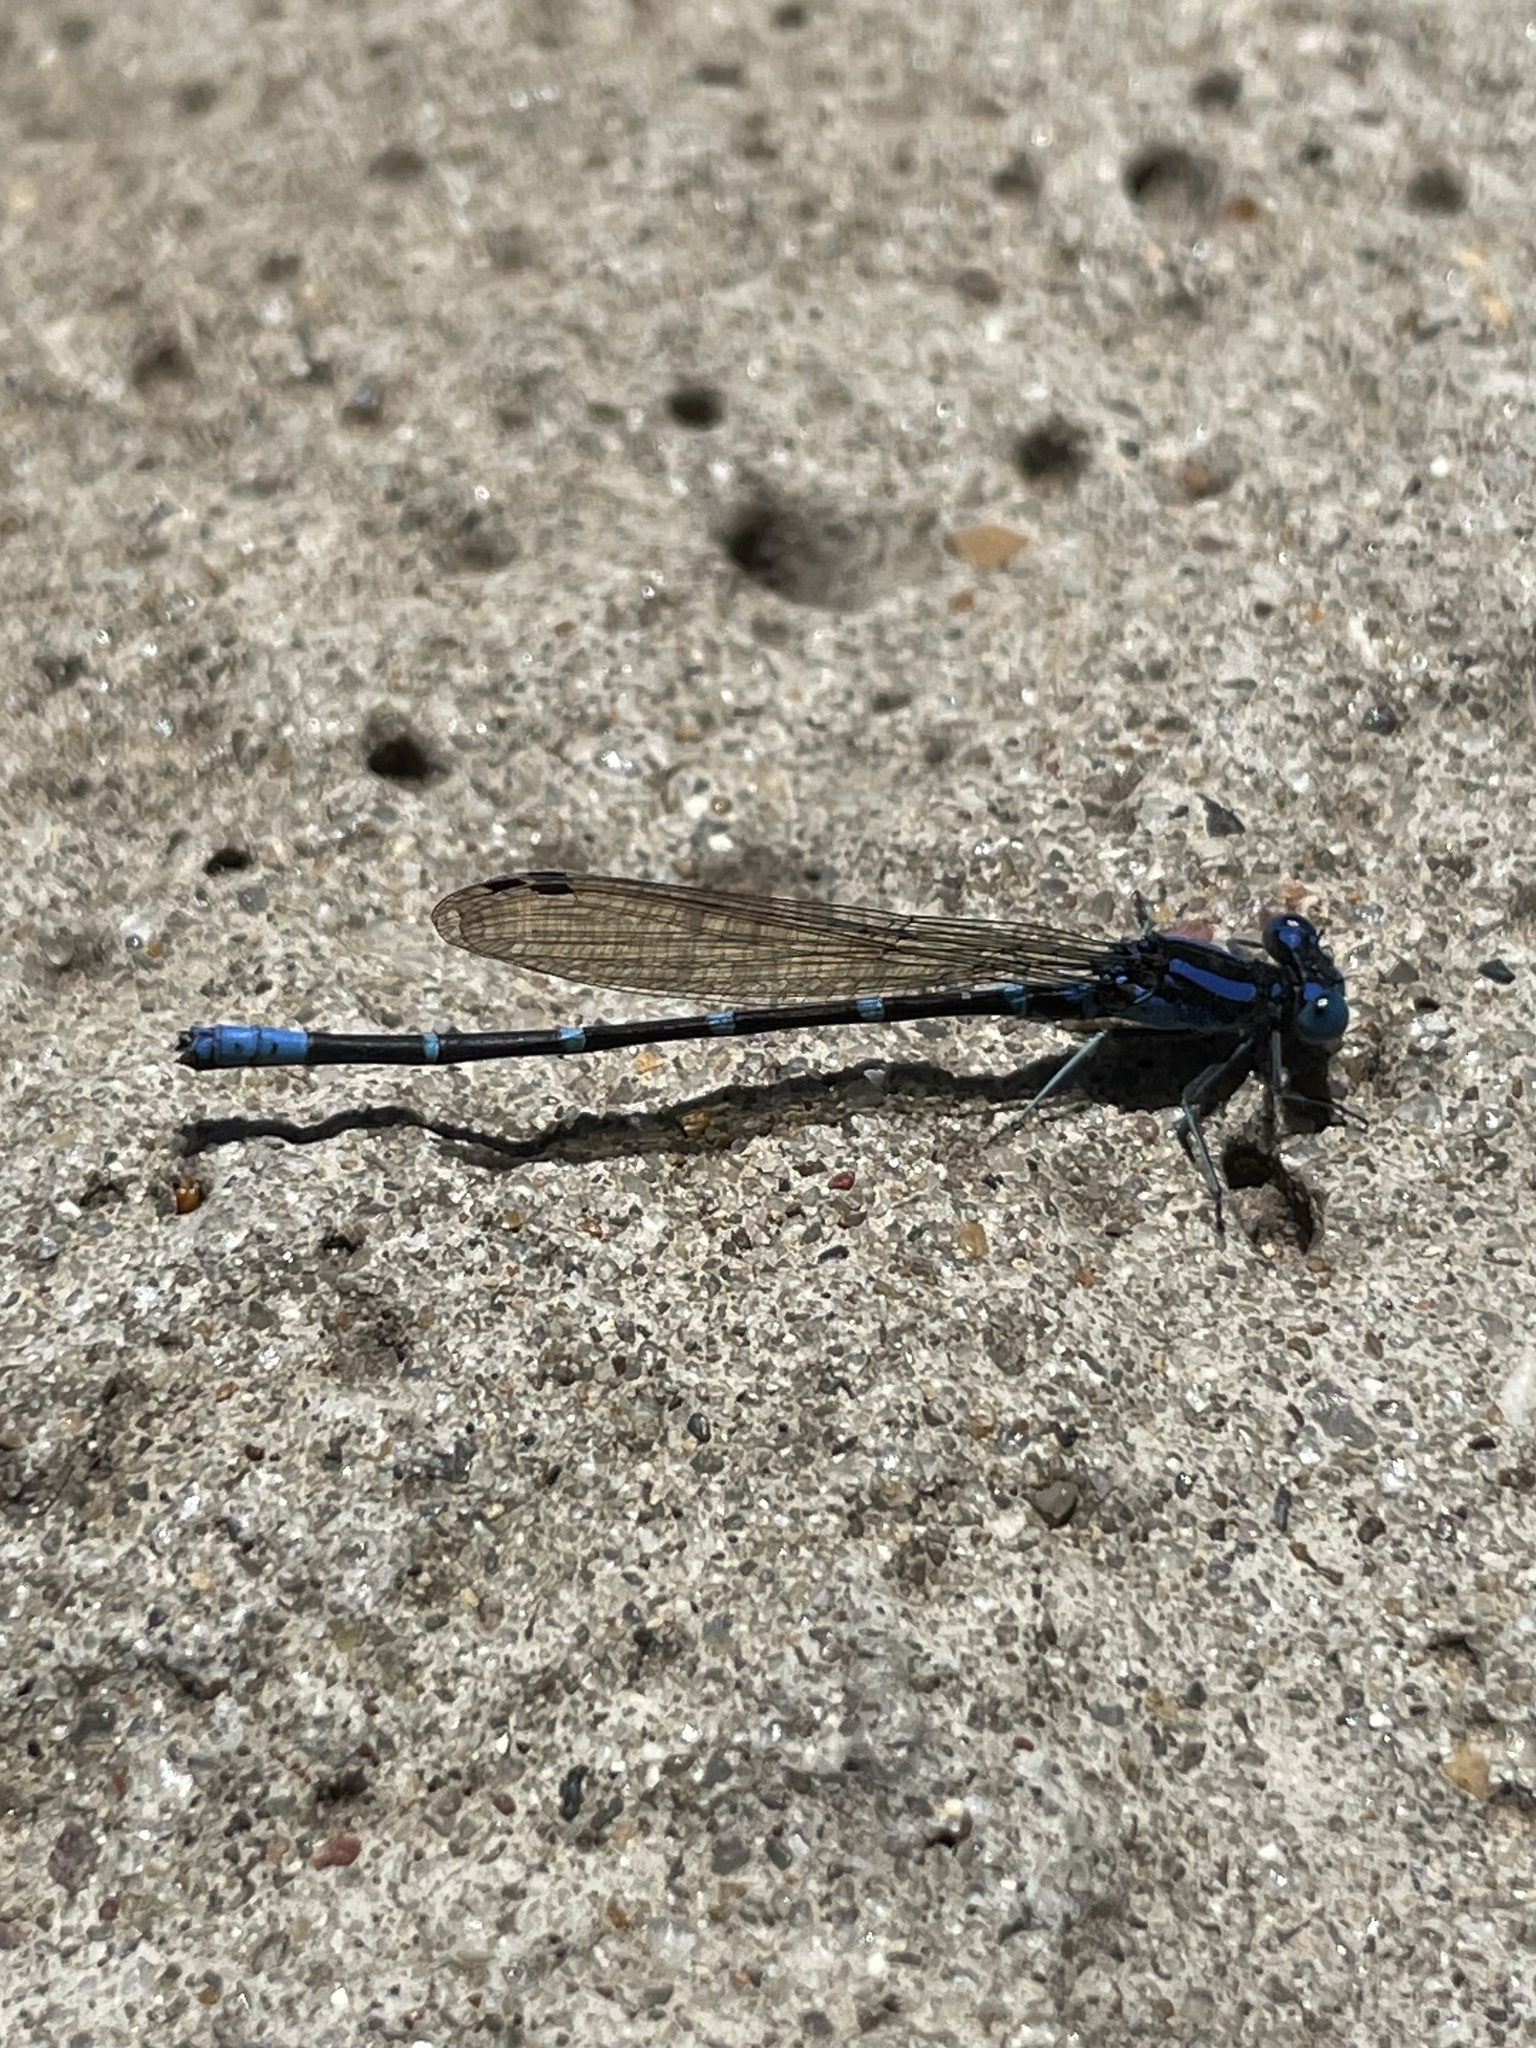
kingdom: Animalia
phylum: Arthropoda
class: Insecta
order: Odonata
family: Coenagrionidae
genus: Argia
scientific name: Argia sedula
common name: Blue-ringed dancer
